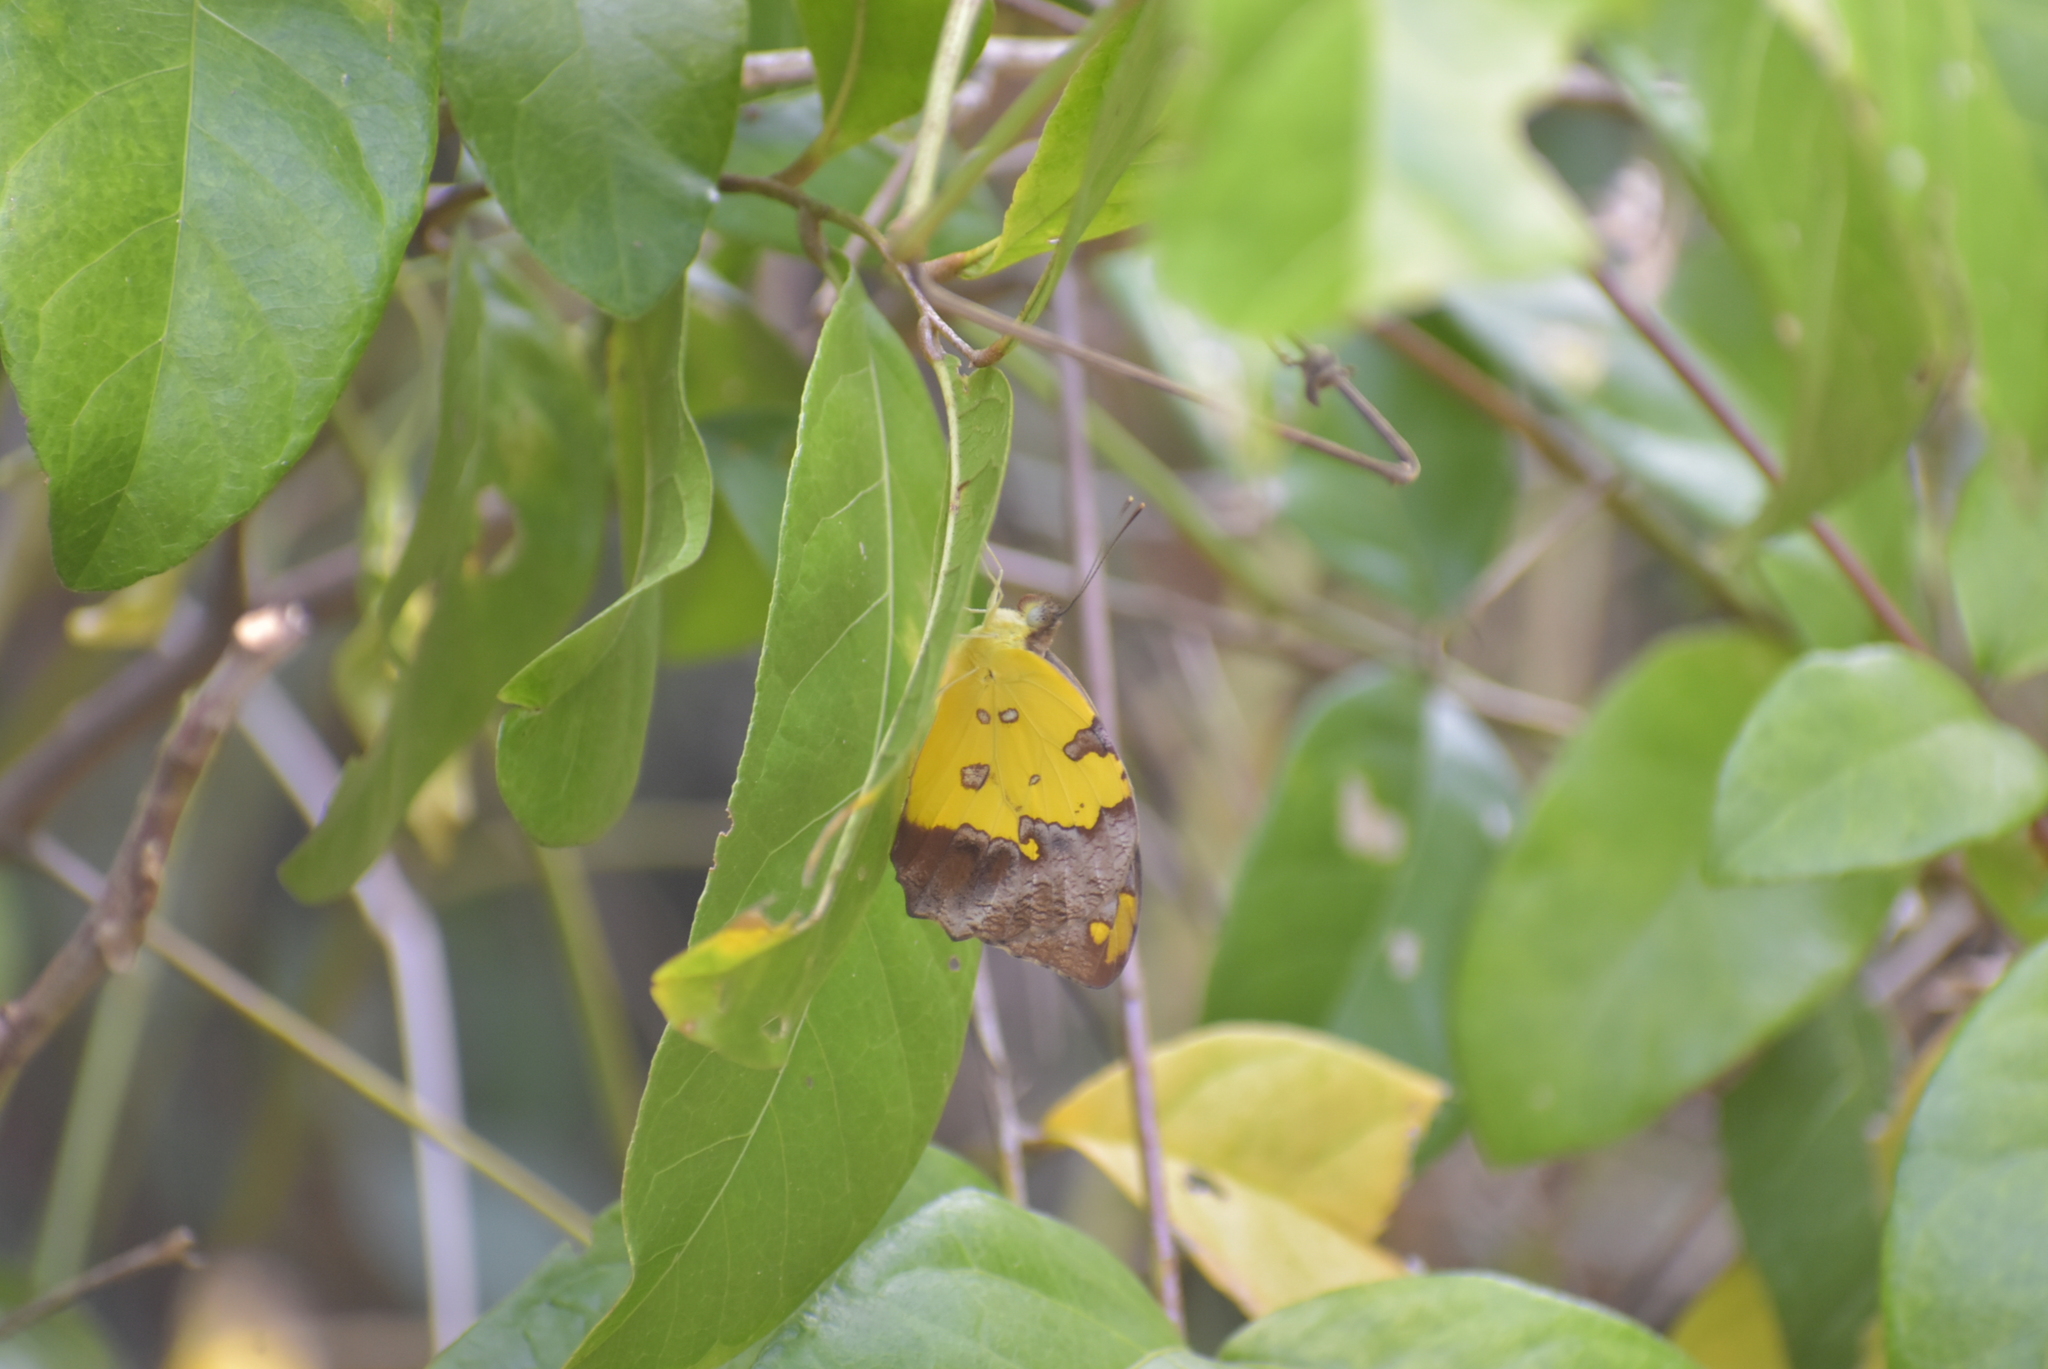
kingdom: Animalia
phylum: Arthropoda
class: Insecta
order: Lepidoptera
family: Pieridae
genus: Eronia
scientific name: Eronia
